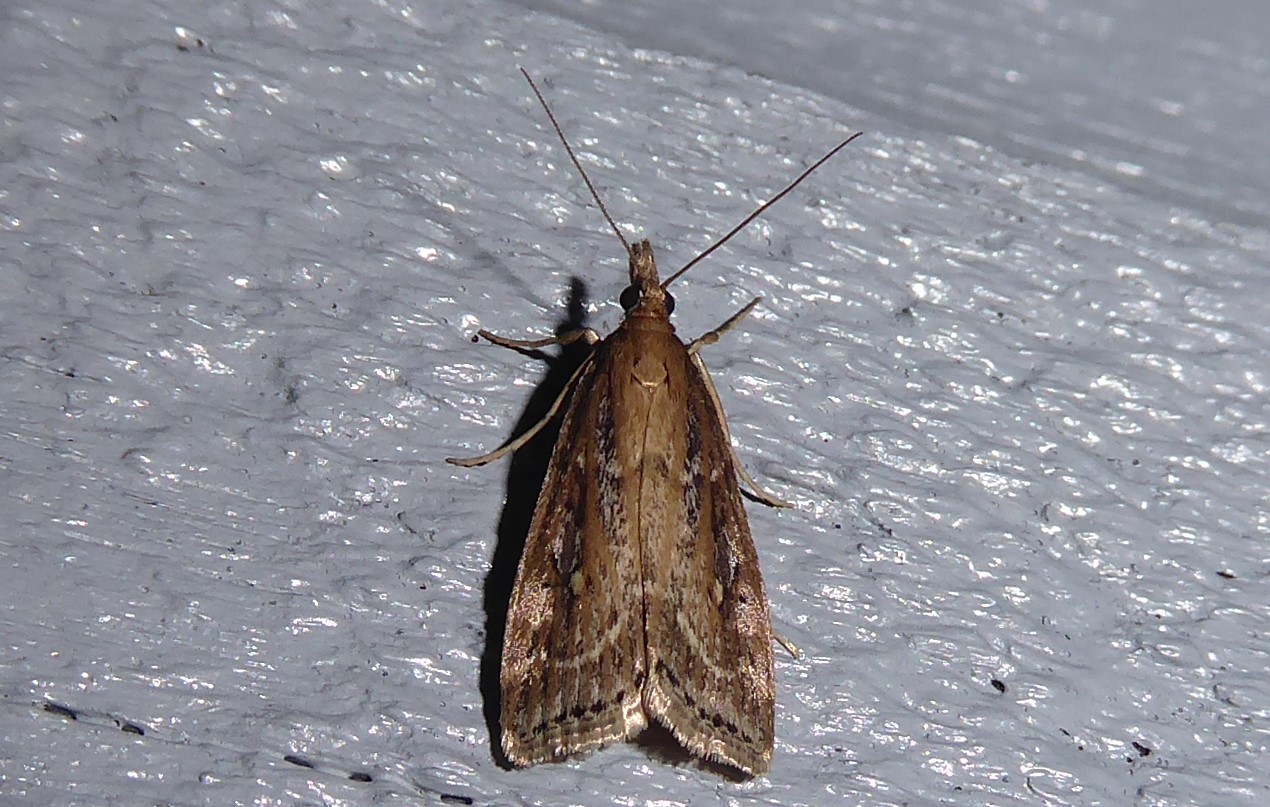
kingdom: Animalia
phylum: Arthropoda
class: Insecta
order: Lepidoptera
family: Crambidae
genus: Eudonia
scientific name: Eudonia octophora
